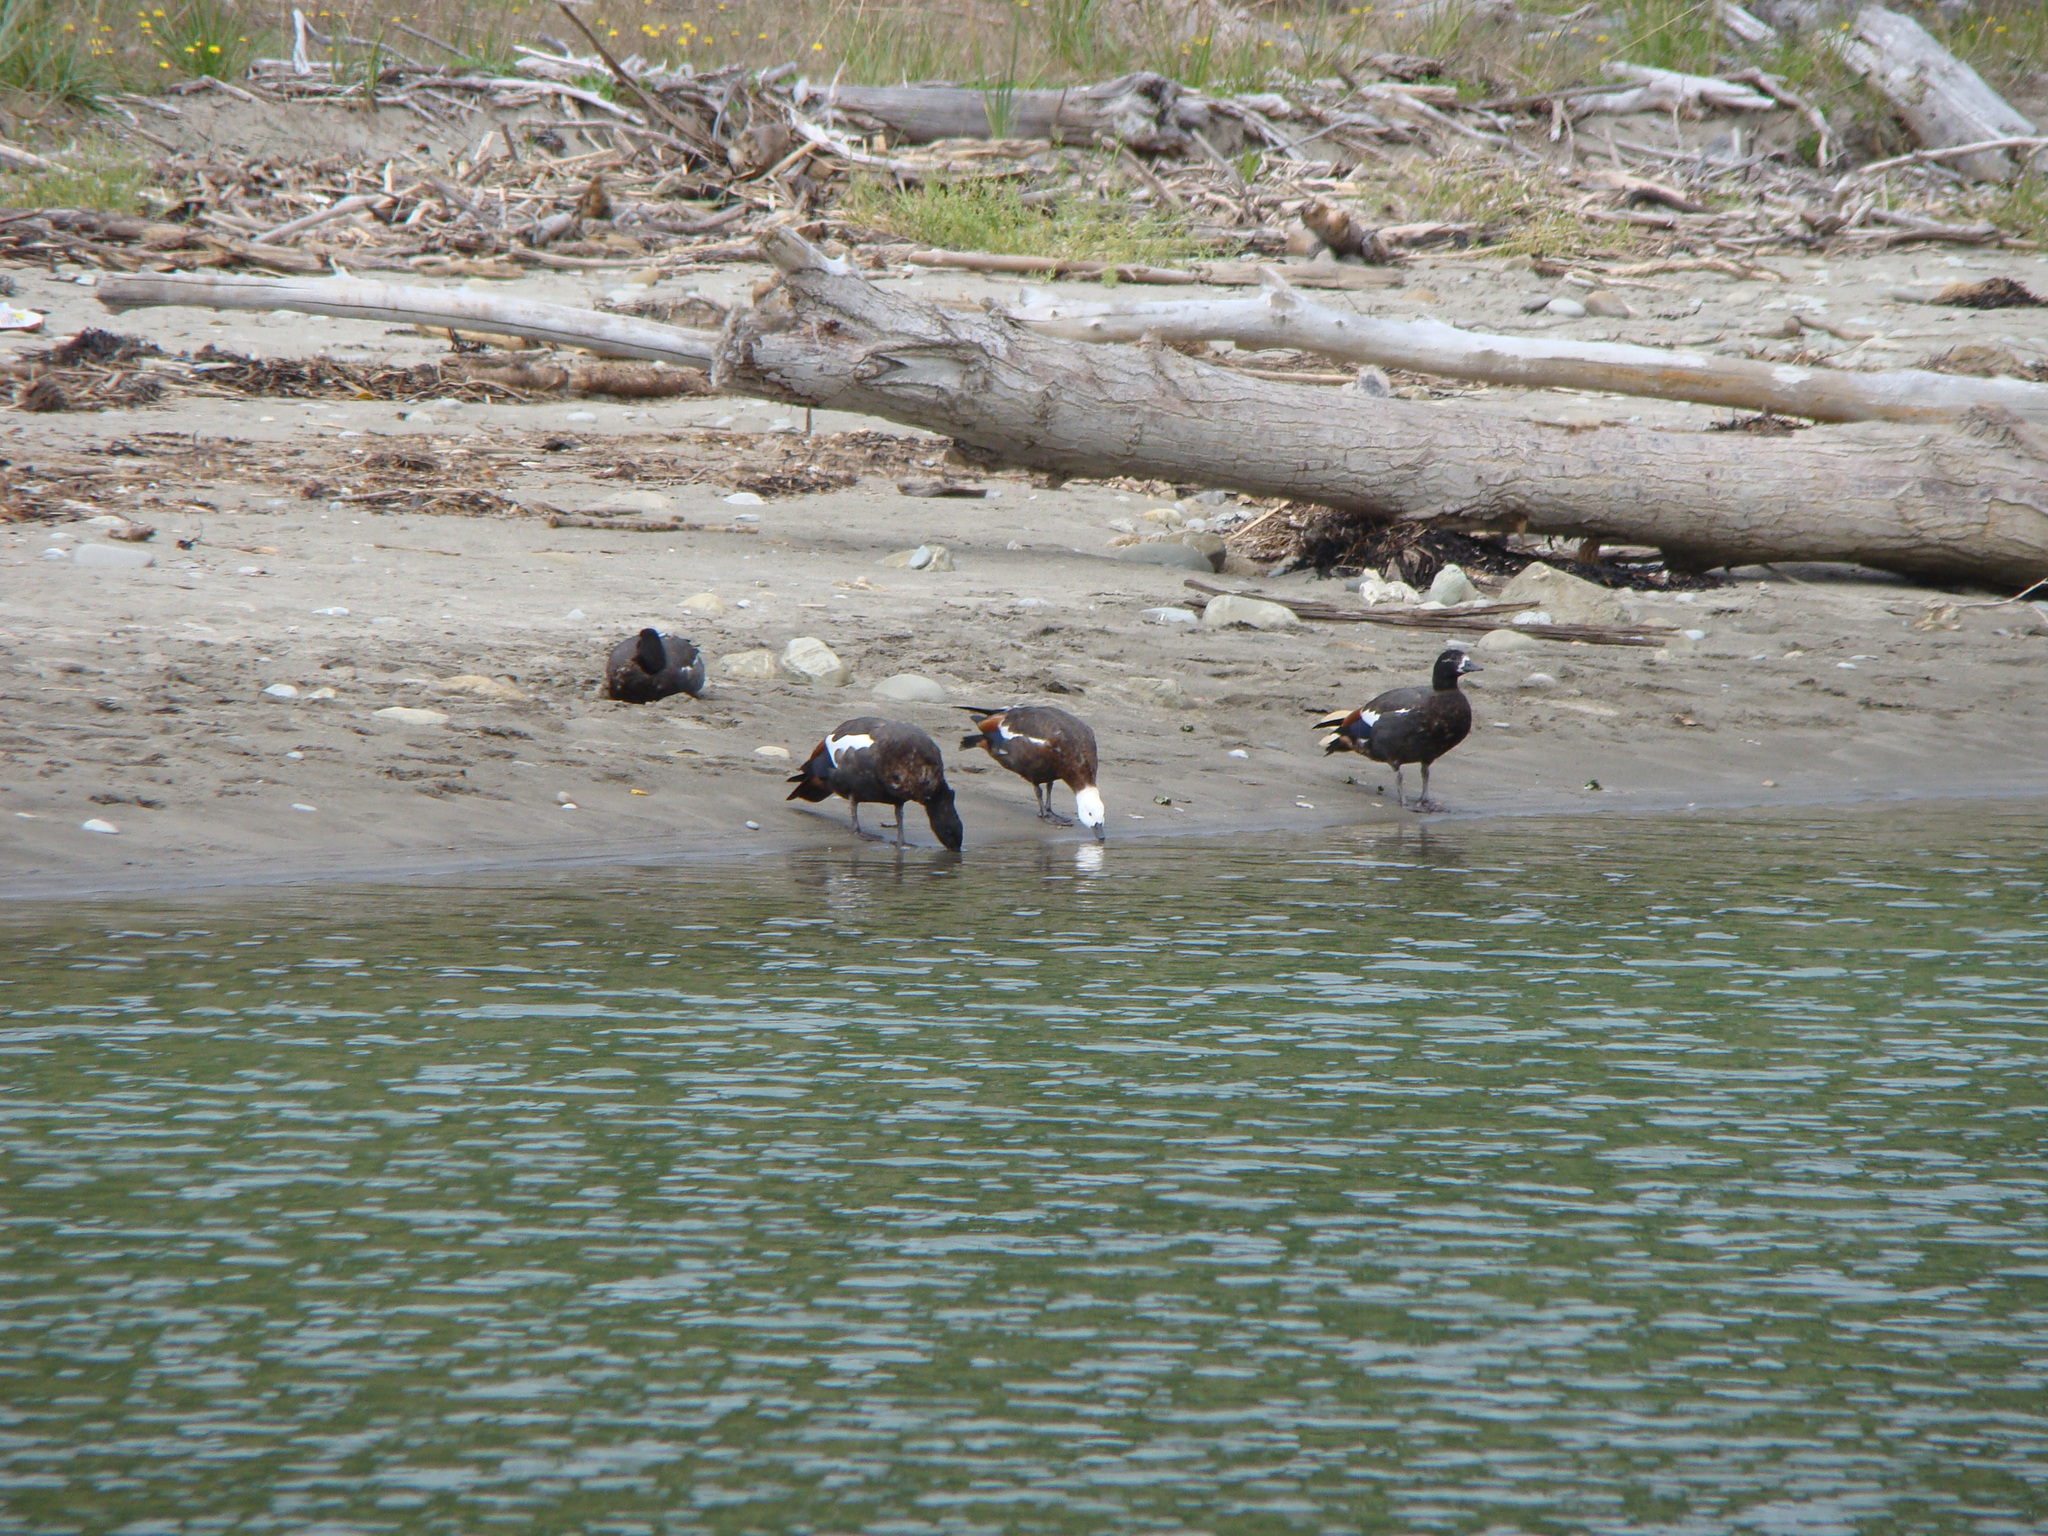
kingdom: Animalia
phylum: Chordata
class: Aves
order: Anseriformes
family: Anatidae
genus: Tadorna
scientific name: Tadorna variegata
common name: Paradise shelduck
